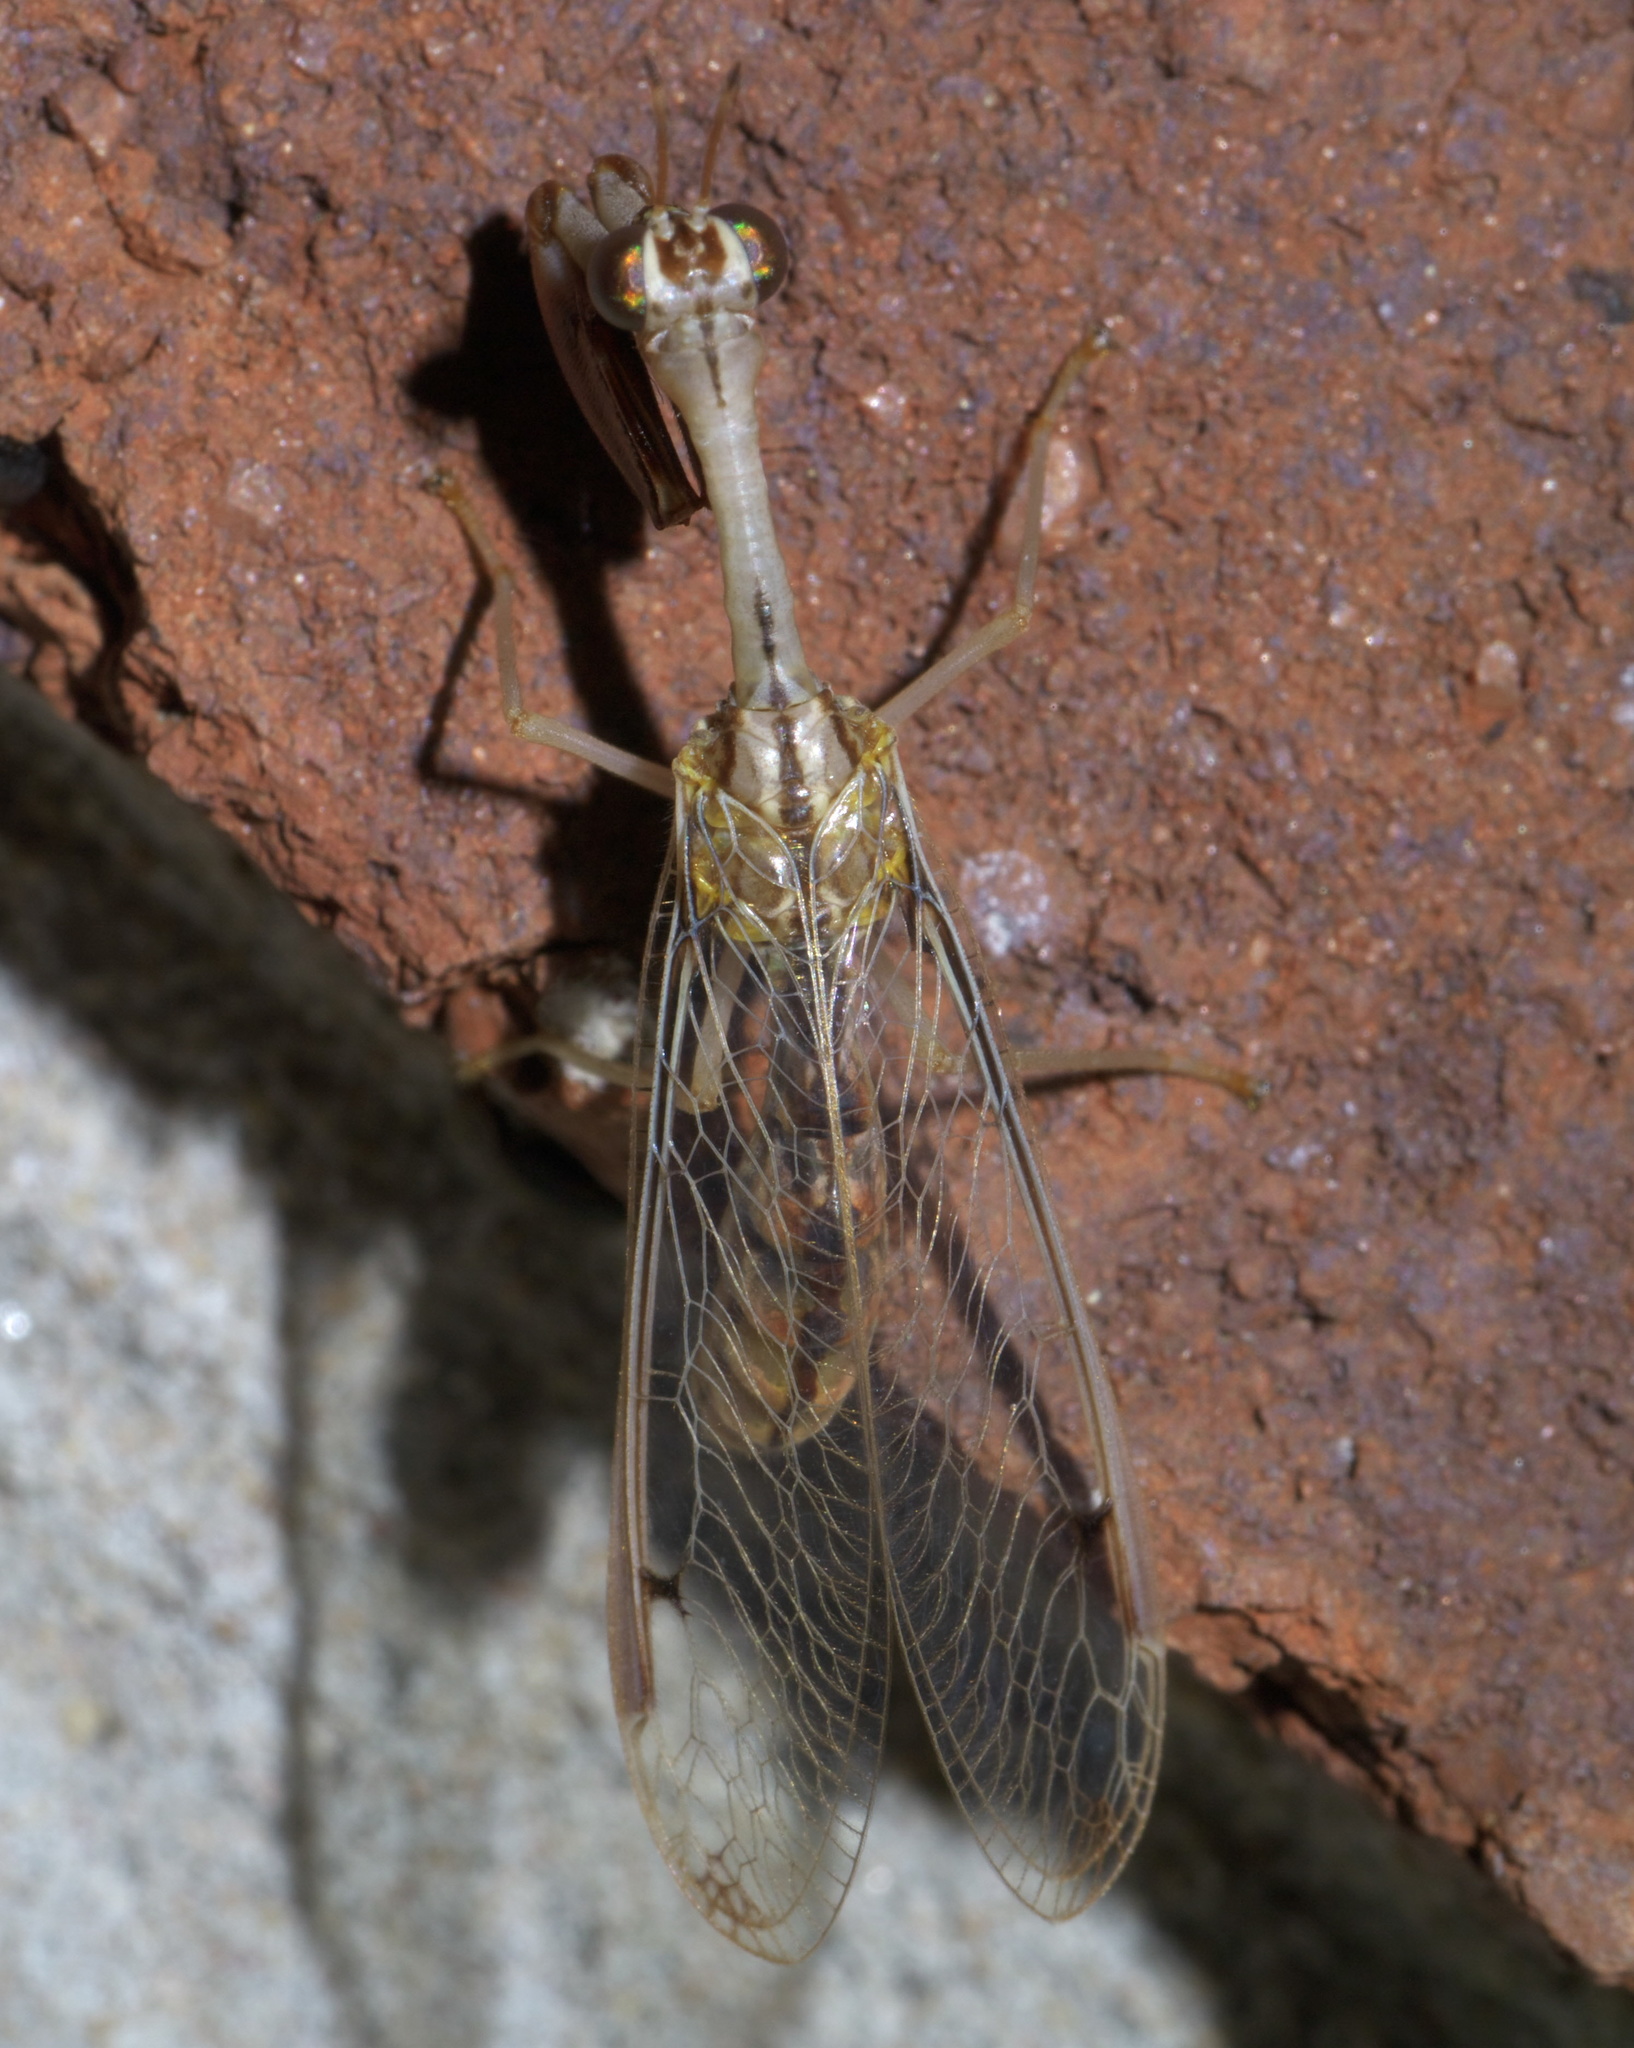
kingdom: Animalia
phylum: Arthropoda
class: Insecta
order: Neuroptera
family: Mantispidae
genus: Dicromantispa
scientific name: Dicromantispa interrupta
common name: Four-spotted mantidfly
